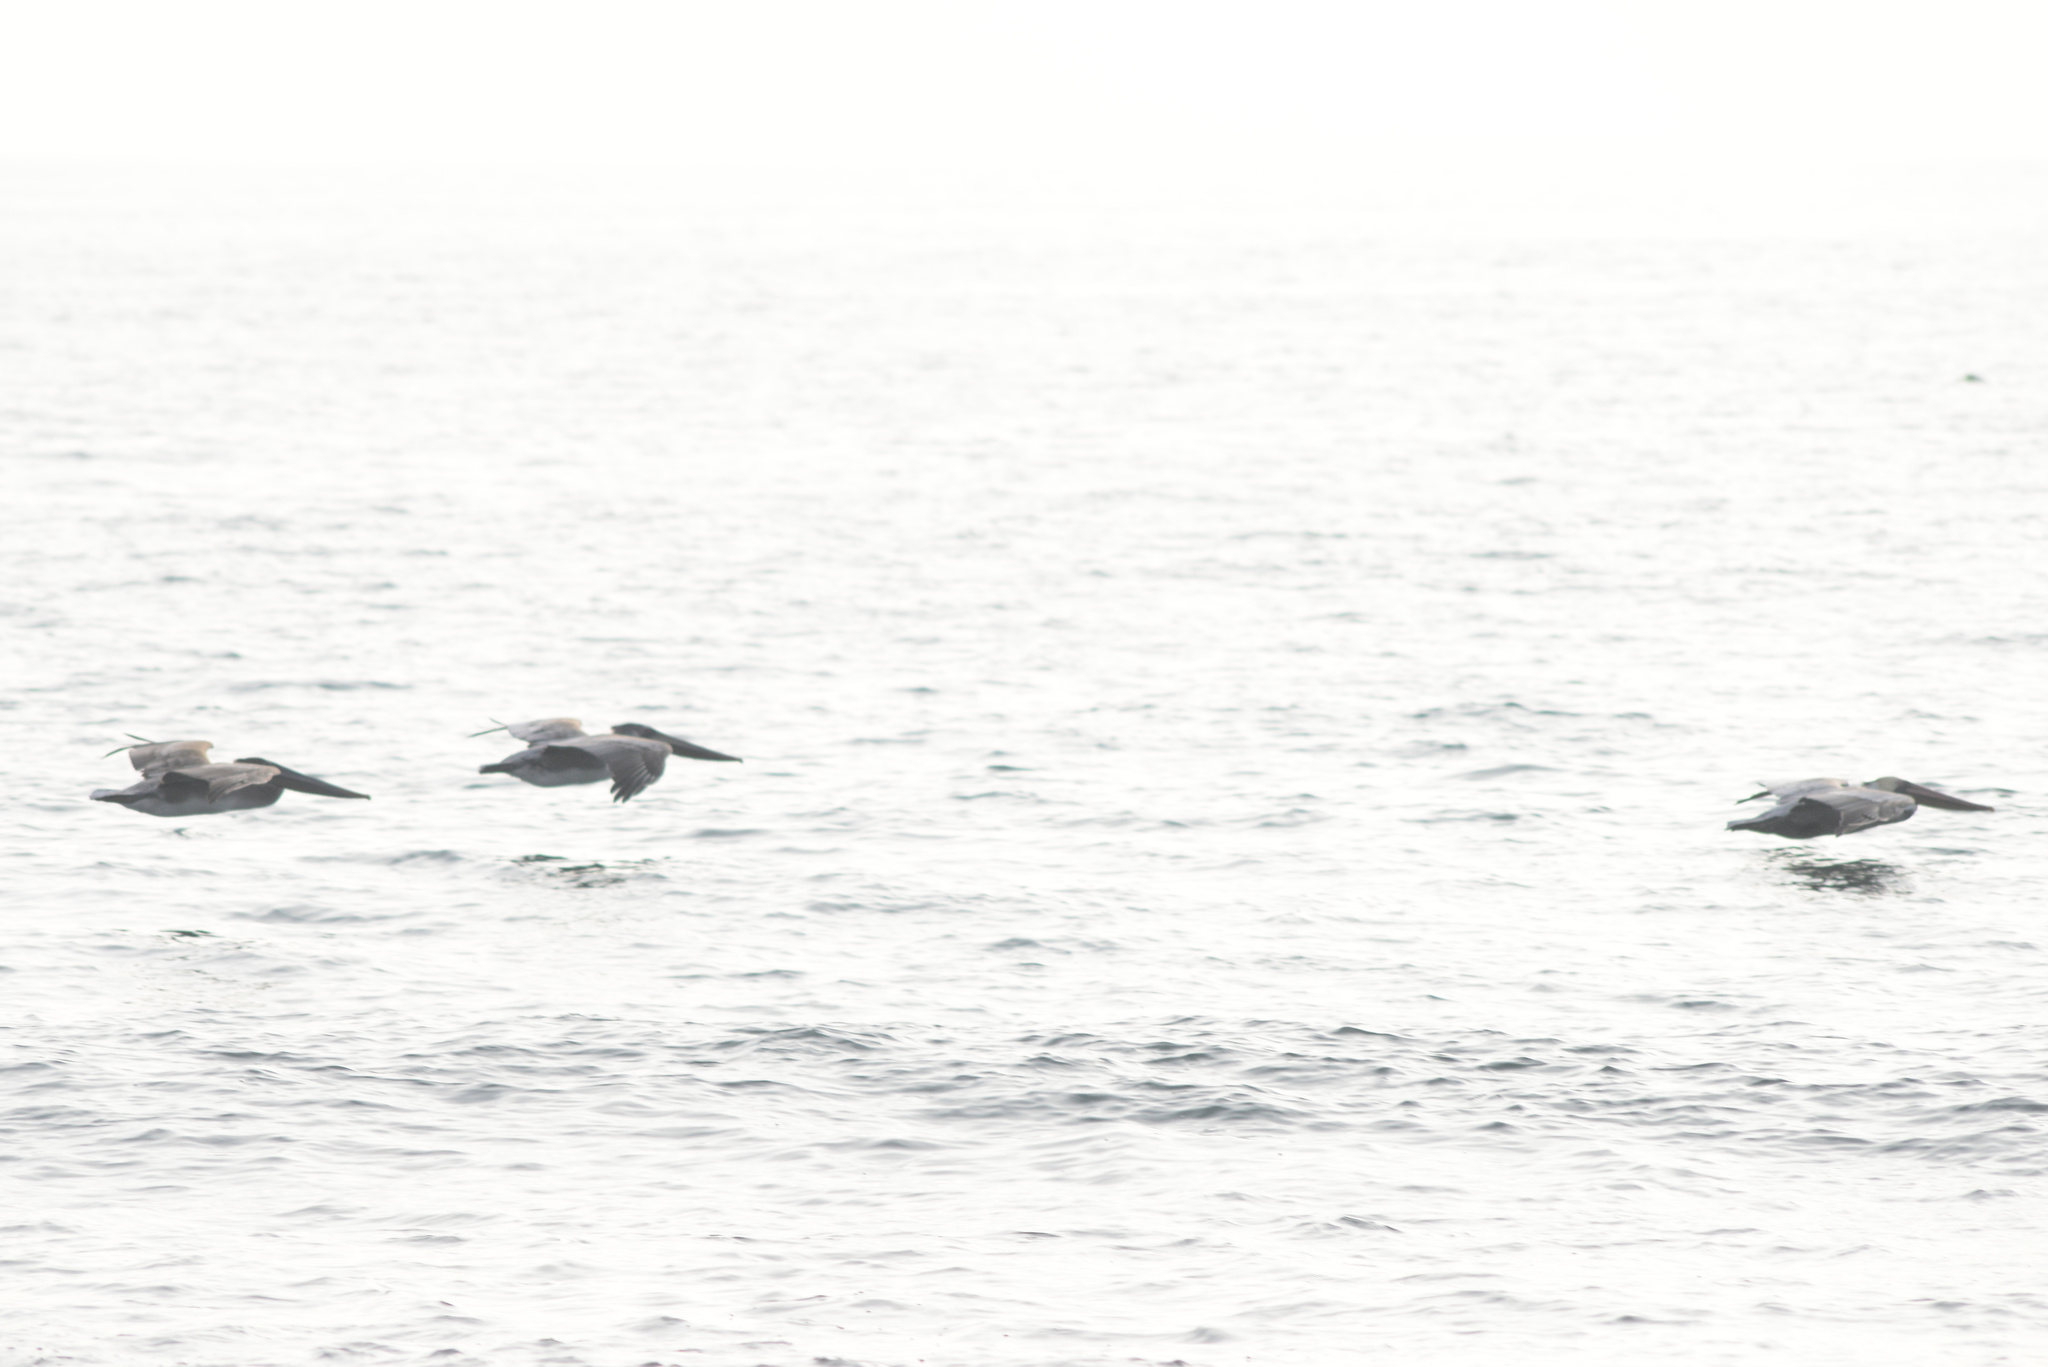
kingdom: Animalia
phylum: Chordata
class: Aves
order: Pelecaniformes
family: Pelecanidae
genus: Pelecanus
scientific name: Pelecanus occidentalis
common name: Brown pelican
